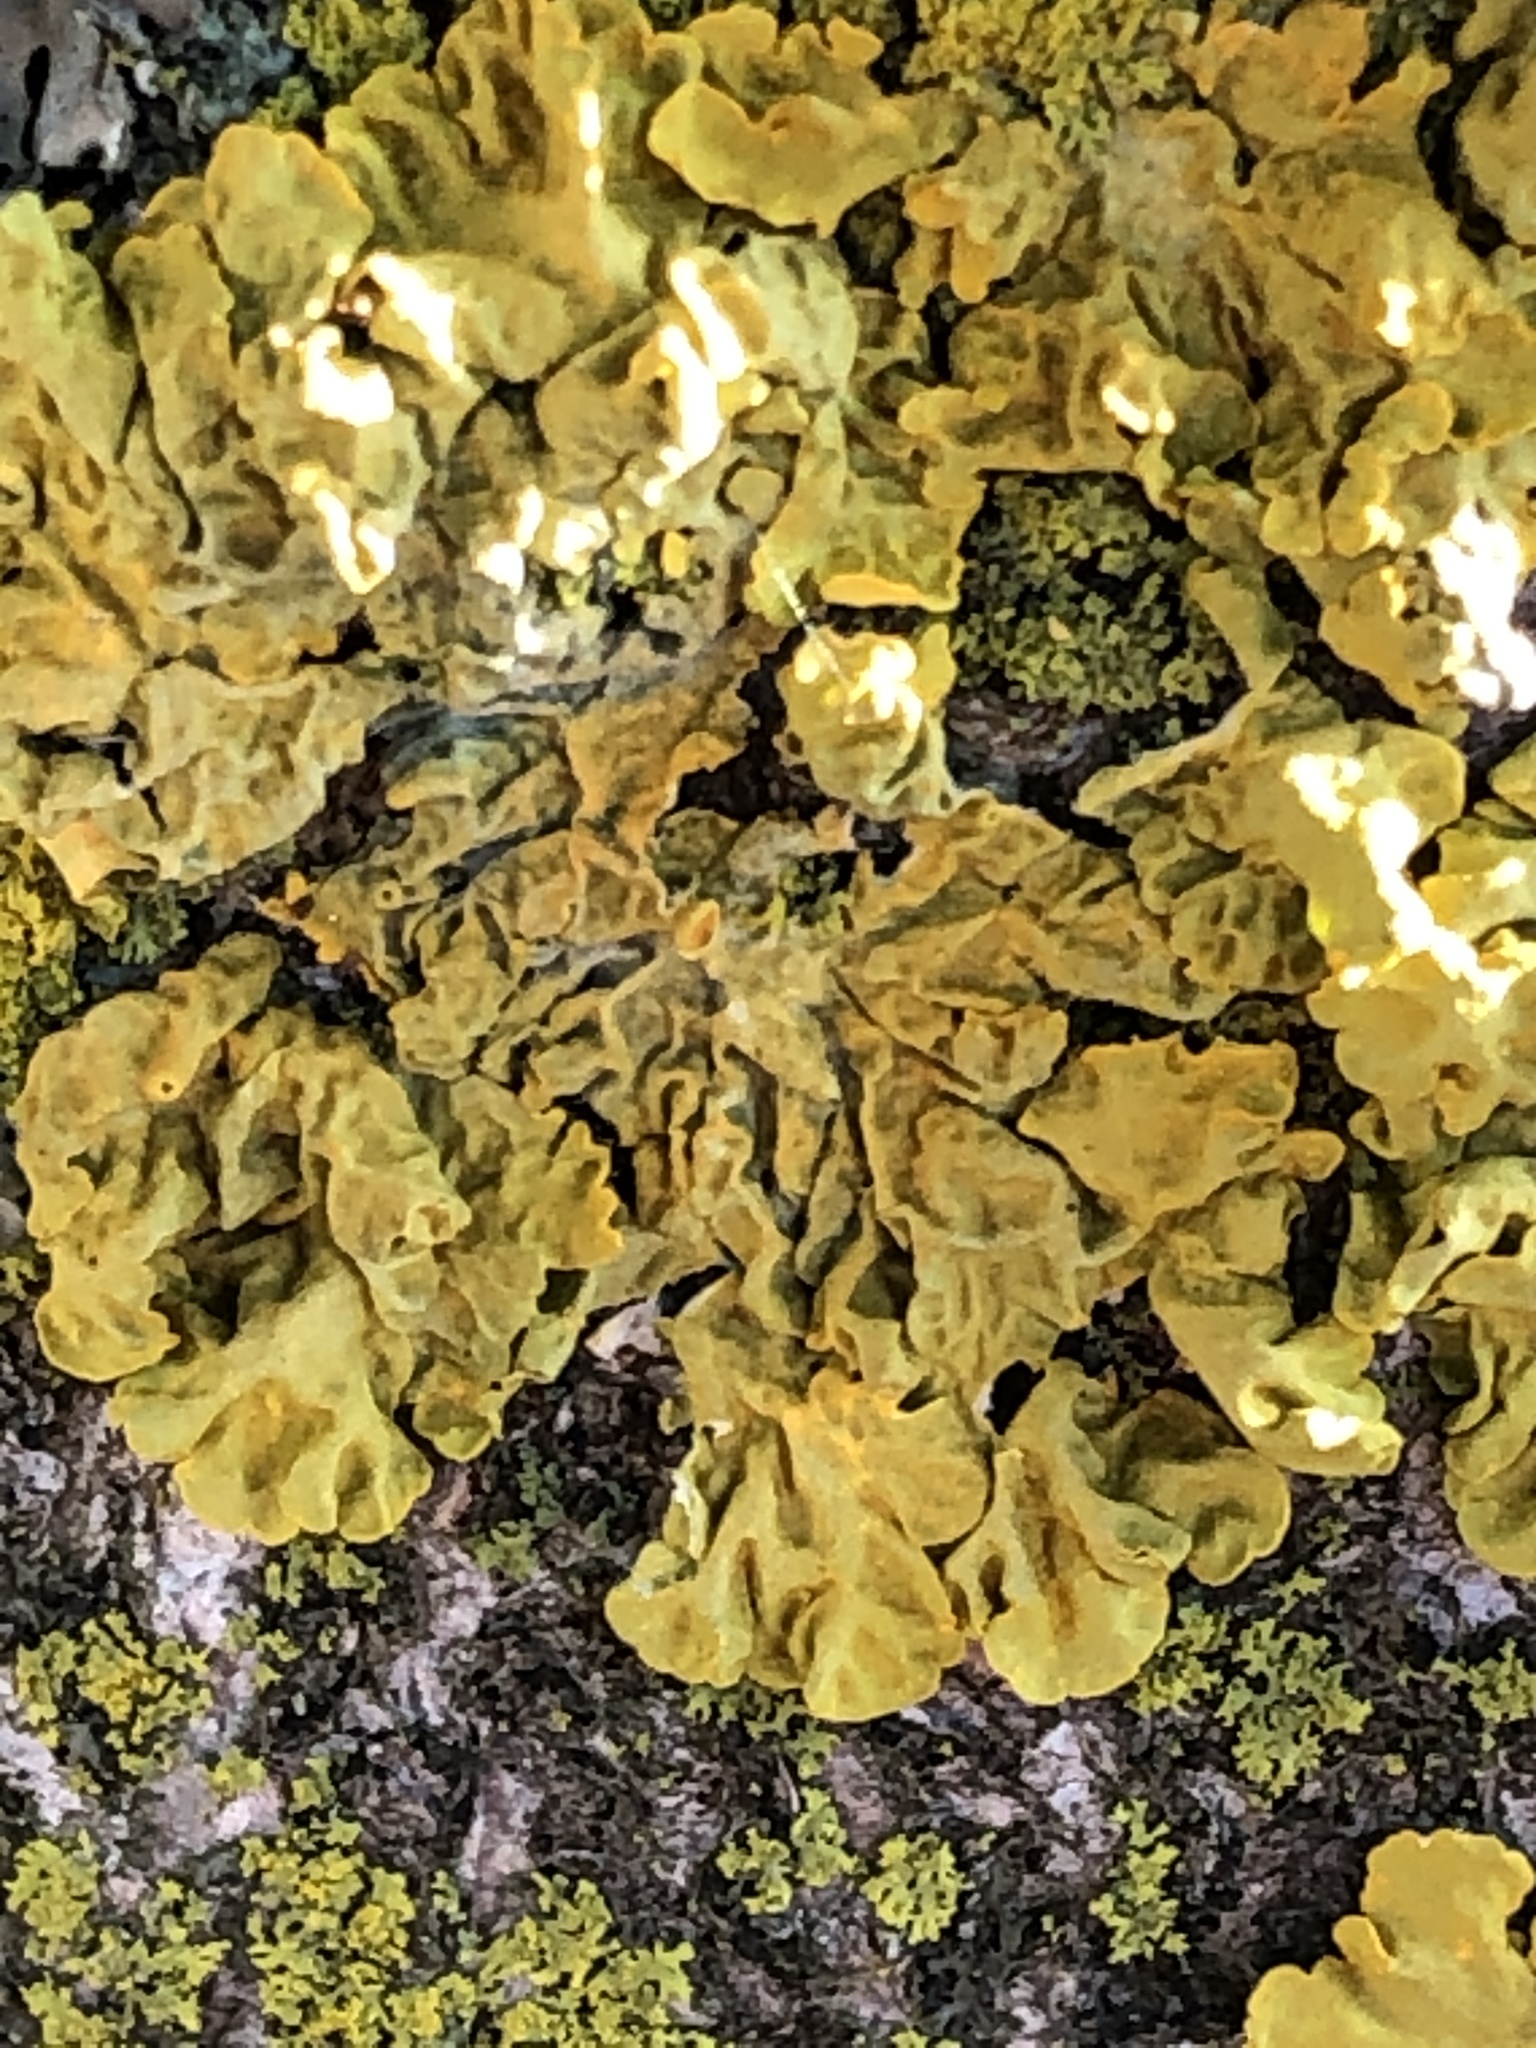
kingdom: Fungi
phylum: Ascomycota
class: Lecanoromycetes
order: Teloschistales
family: Teloschistaceae
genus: Xanthoria
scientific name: Xanthoria parietina
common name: Common orange lichen
